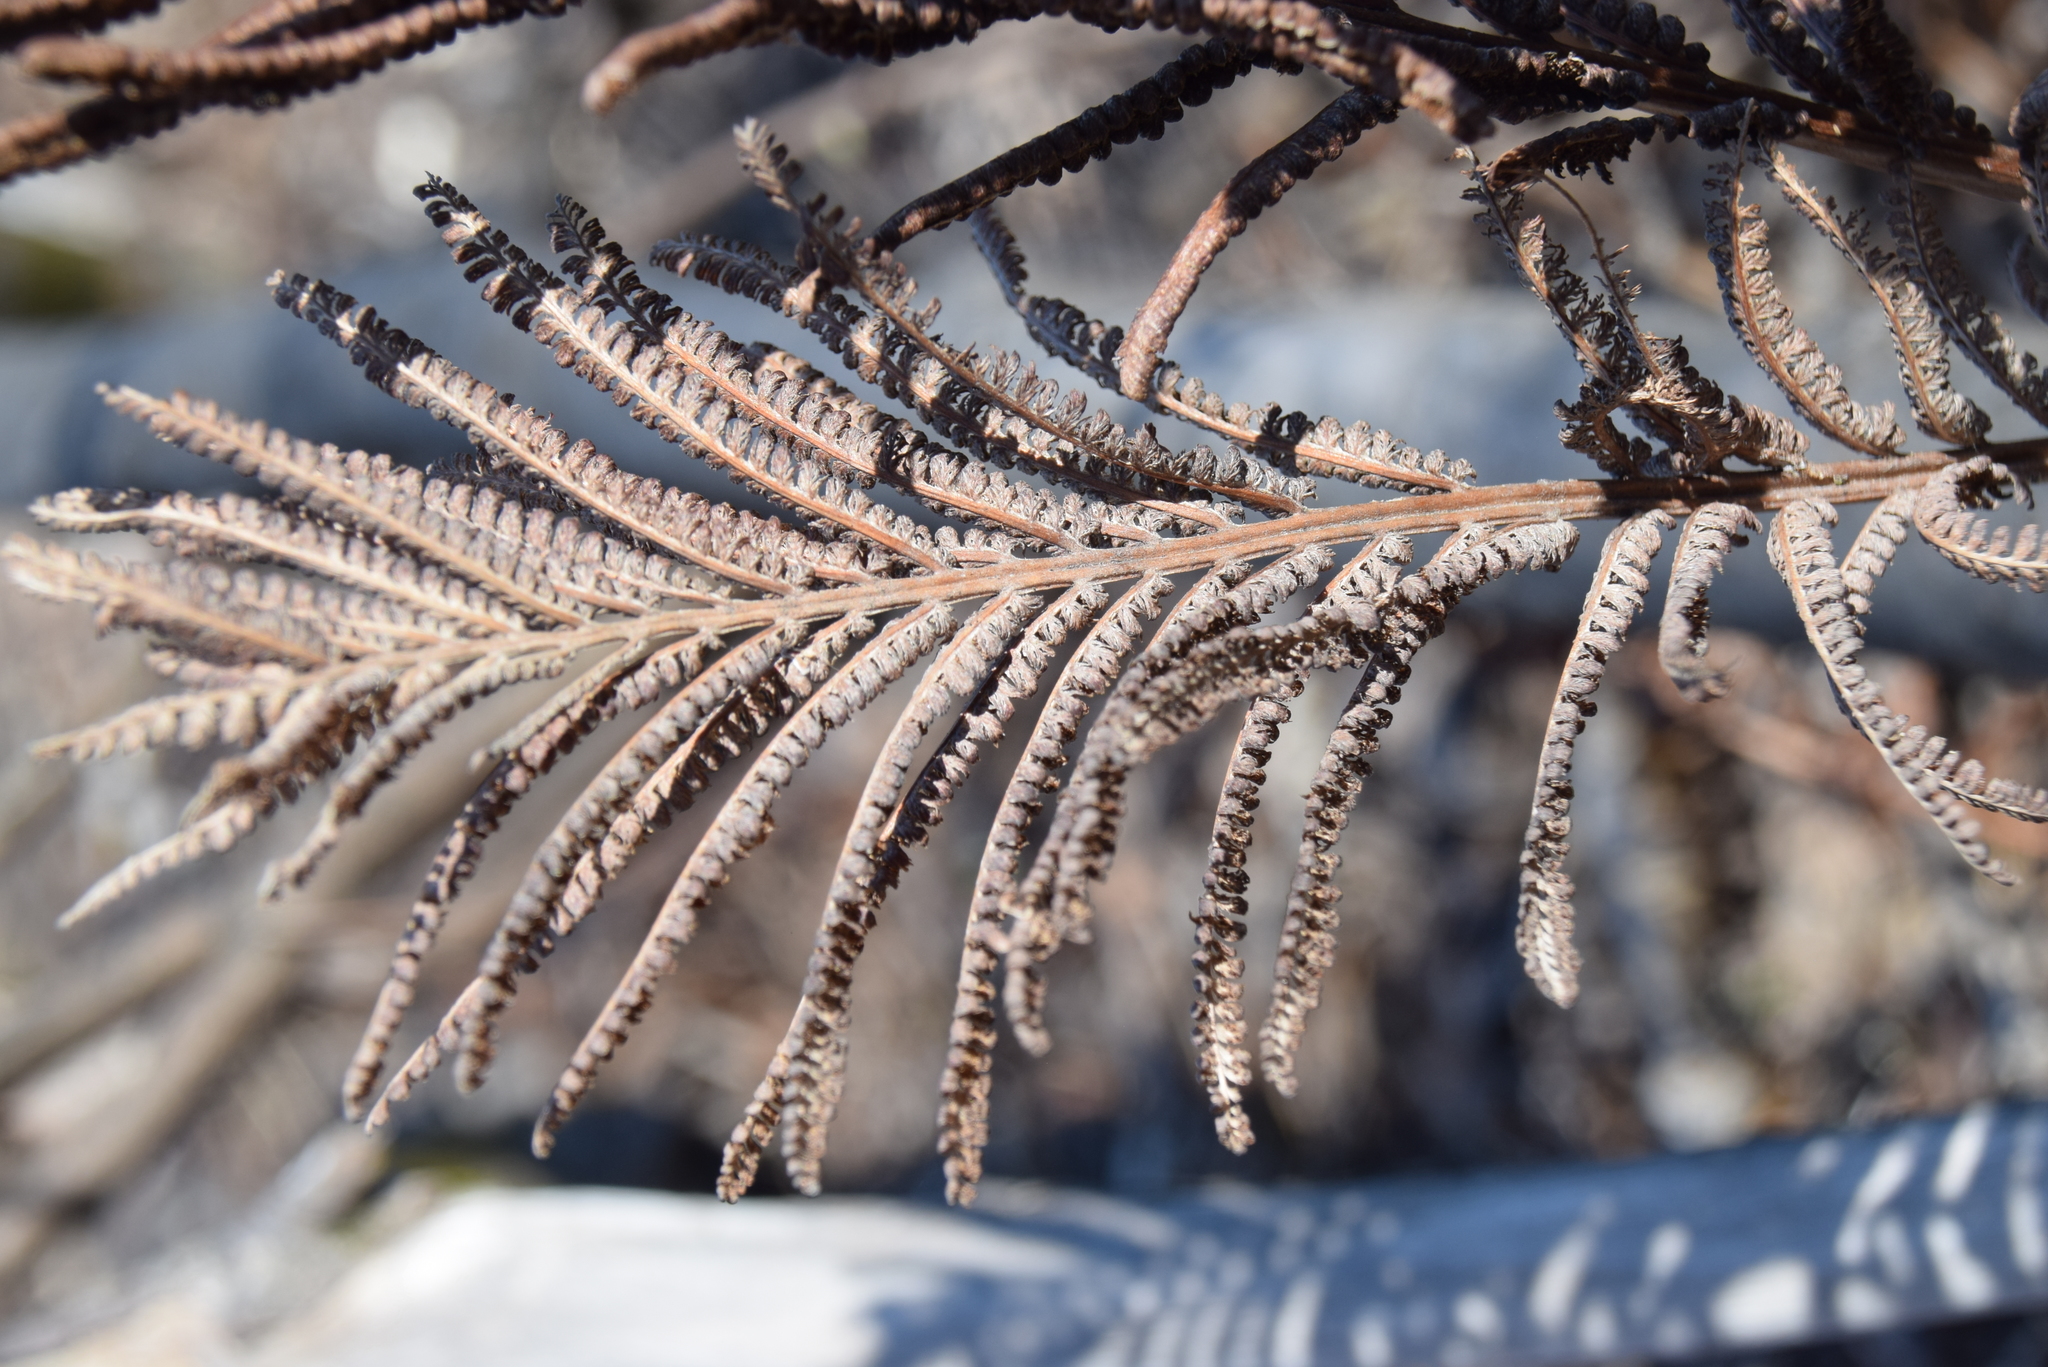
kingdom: Plantae
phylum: Tracheophyta
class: Polypodiopsida
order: Polypodiales
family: Onocleaceae
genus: Matteuccia
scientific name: Matteuccia struthiopteris
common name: Ostrich fern
